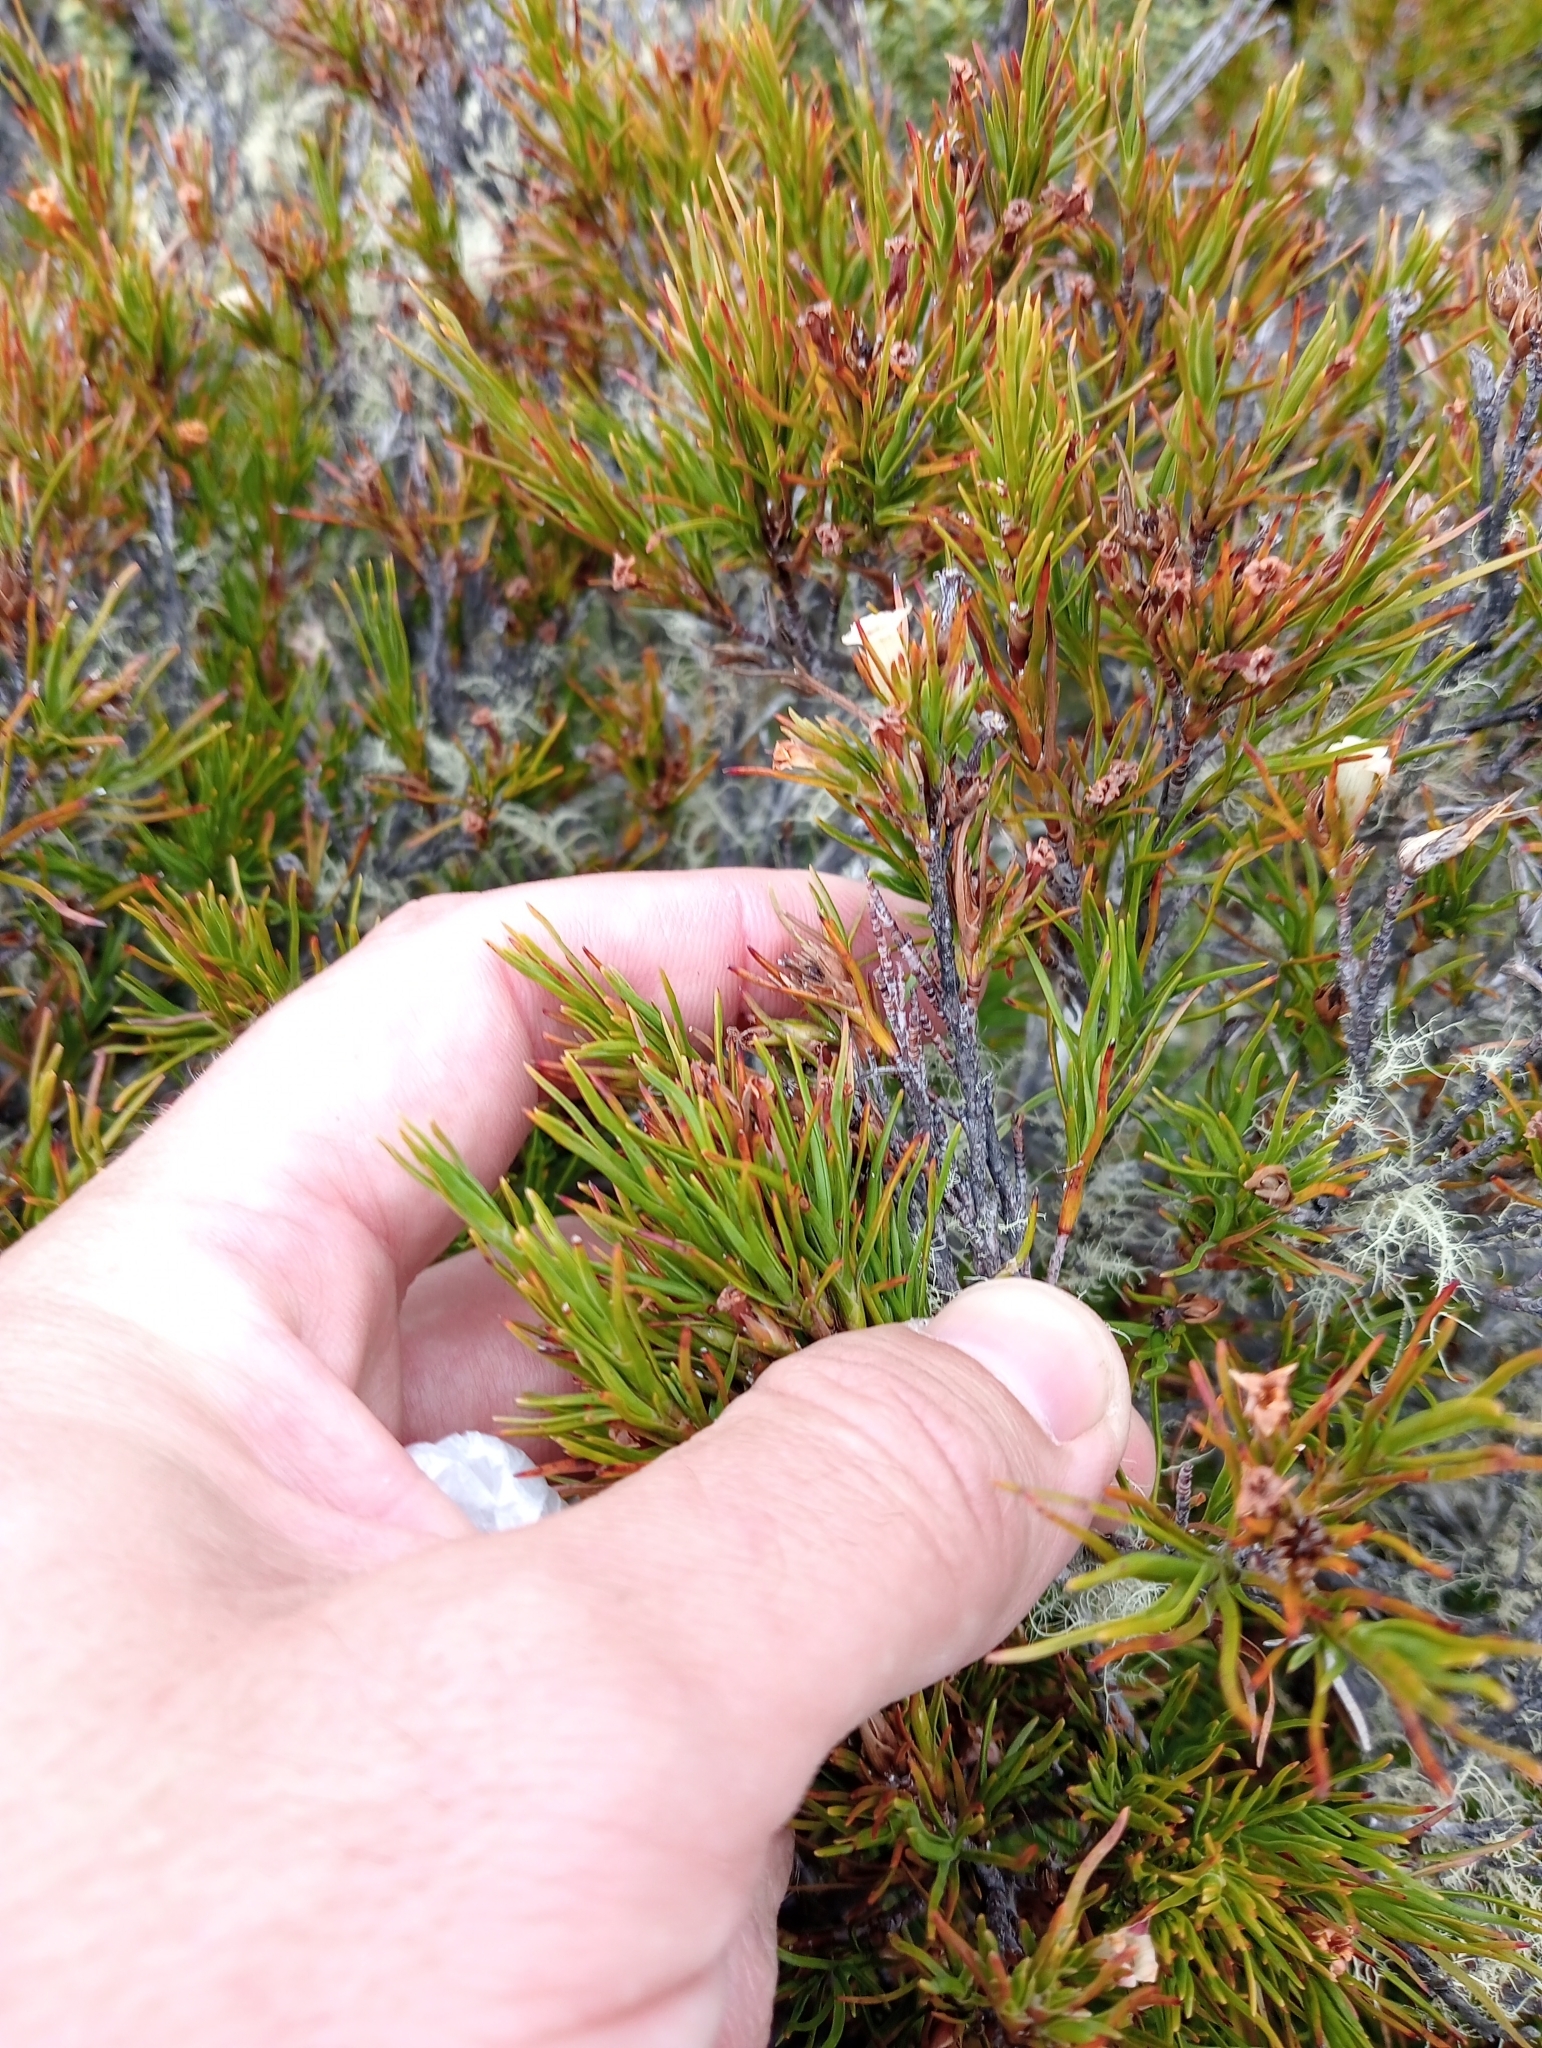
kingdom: Plantae
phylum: Tracheophyta
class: Magnoliopsida
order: Ericales
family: Ericaceae
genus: Dracophyllum
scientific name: Dracophyllum rosmarinifolium
